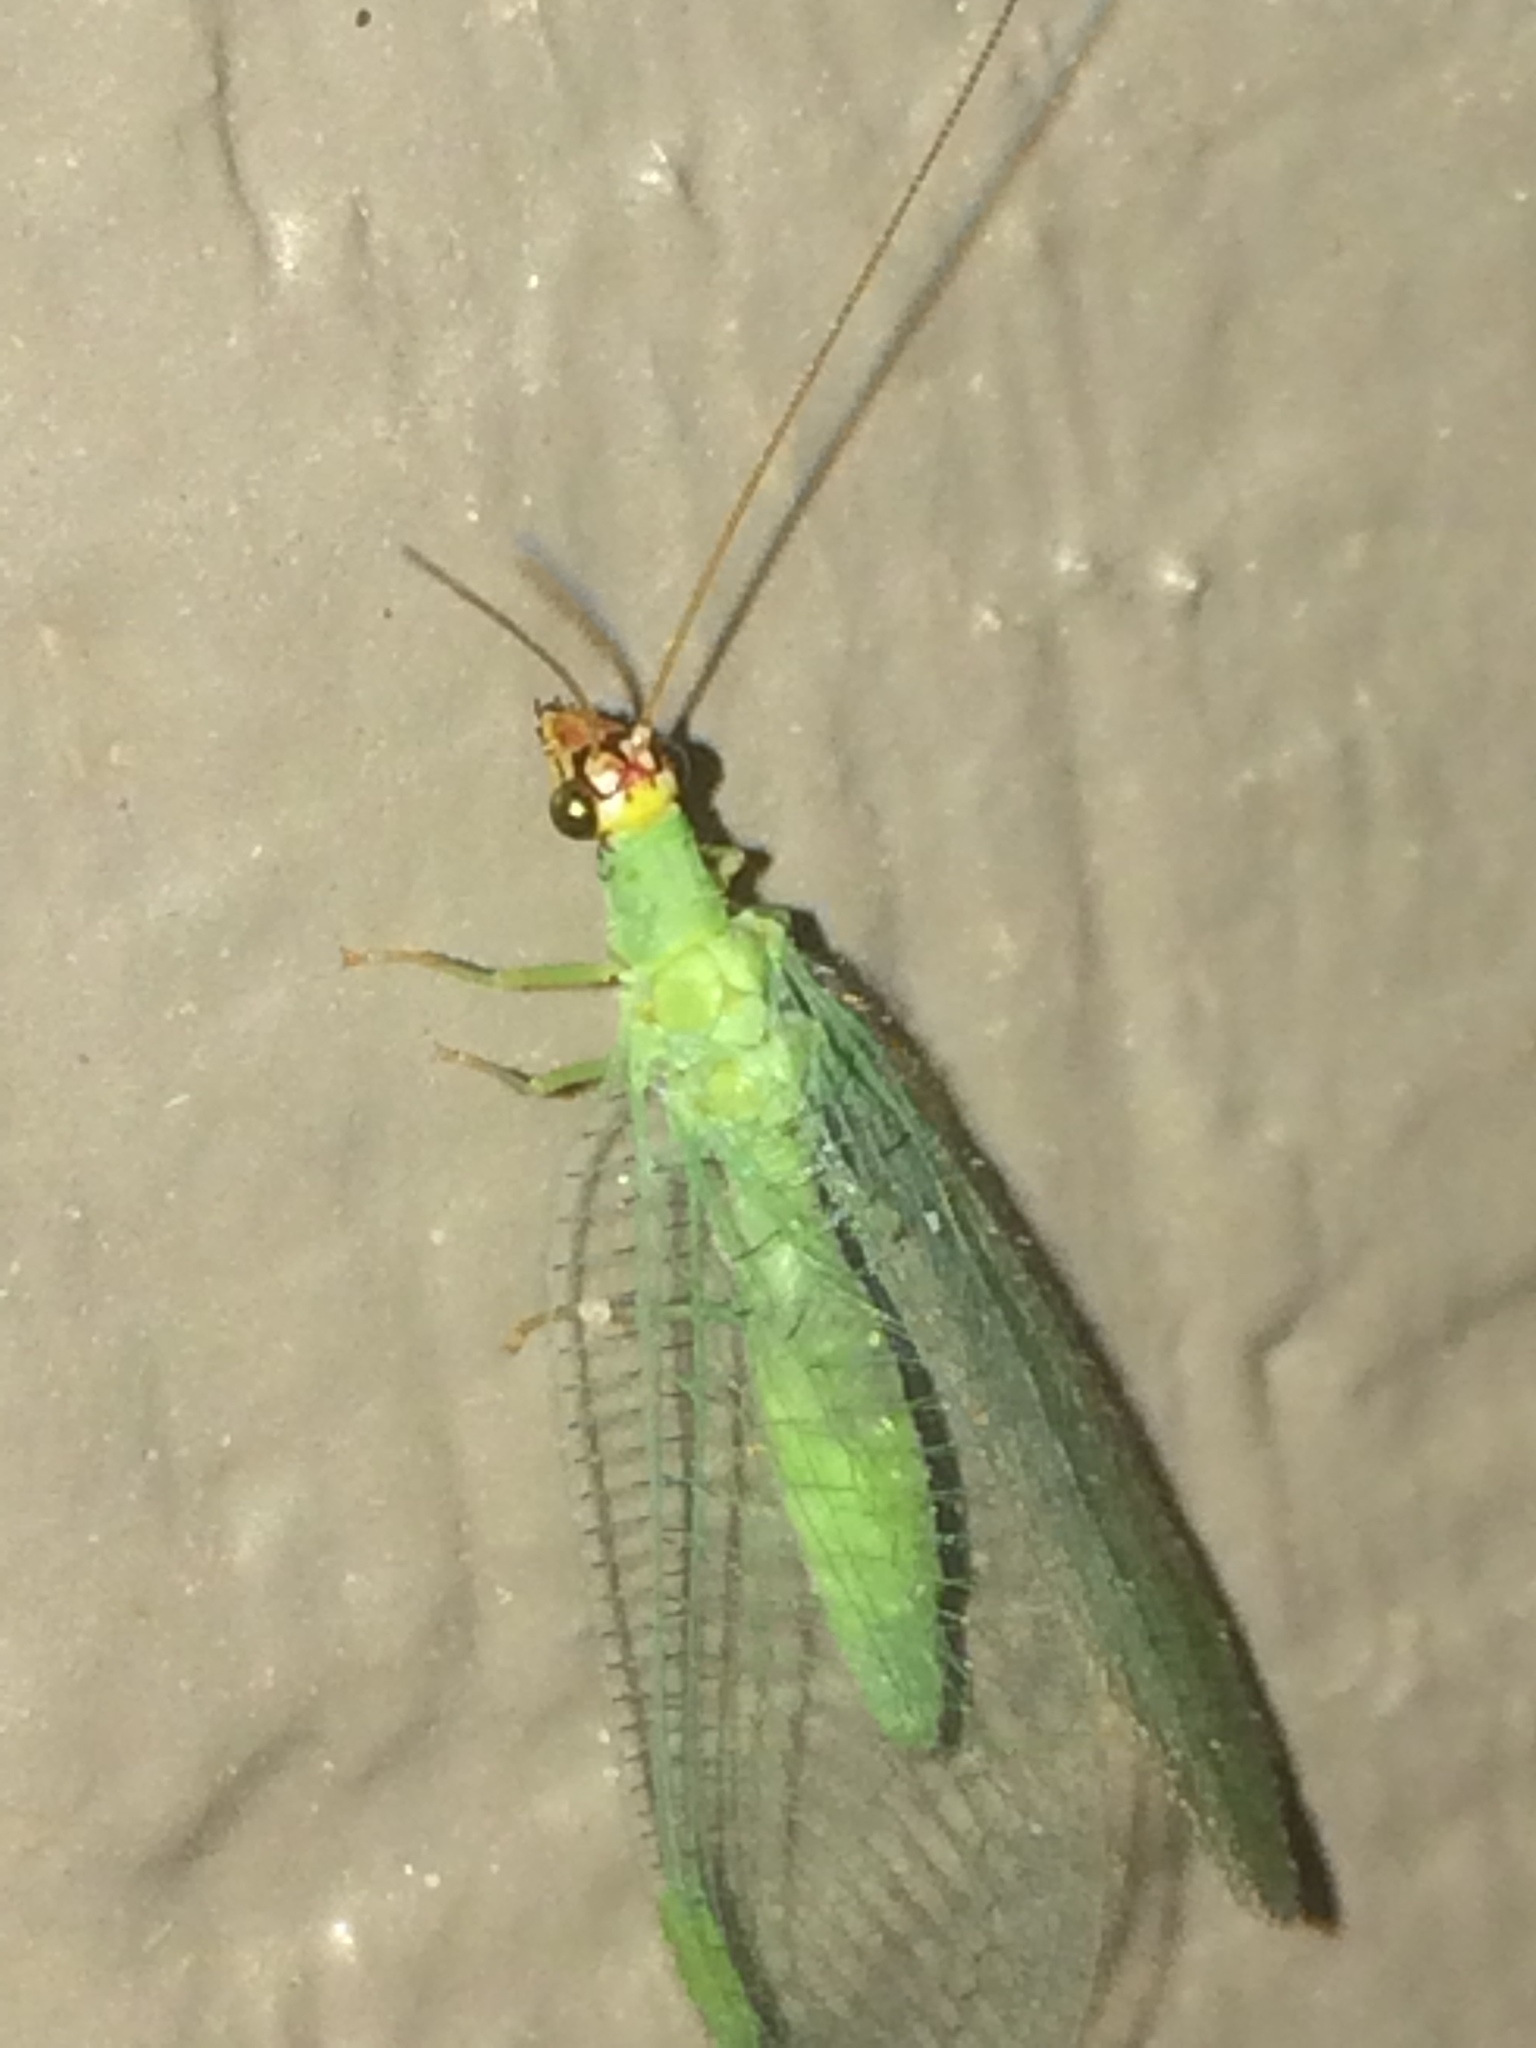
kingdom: Animalia
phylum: Arthropoda
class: Insecta
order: Neuroptera
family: Chrysopidae
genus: Chrysopa
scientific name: Chrysopa oculata
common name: Golden-eyed lacewing
